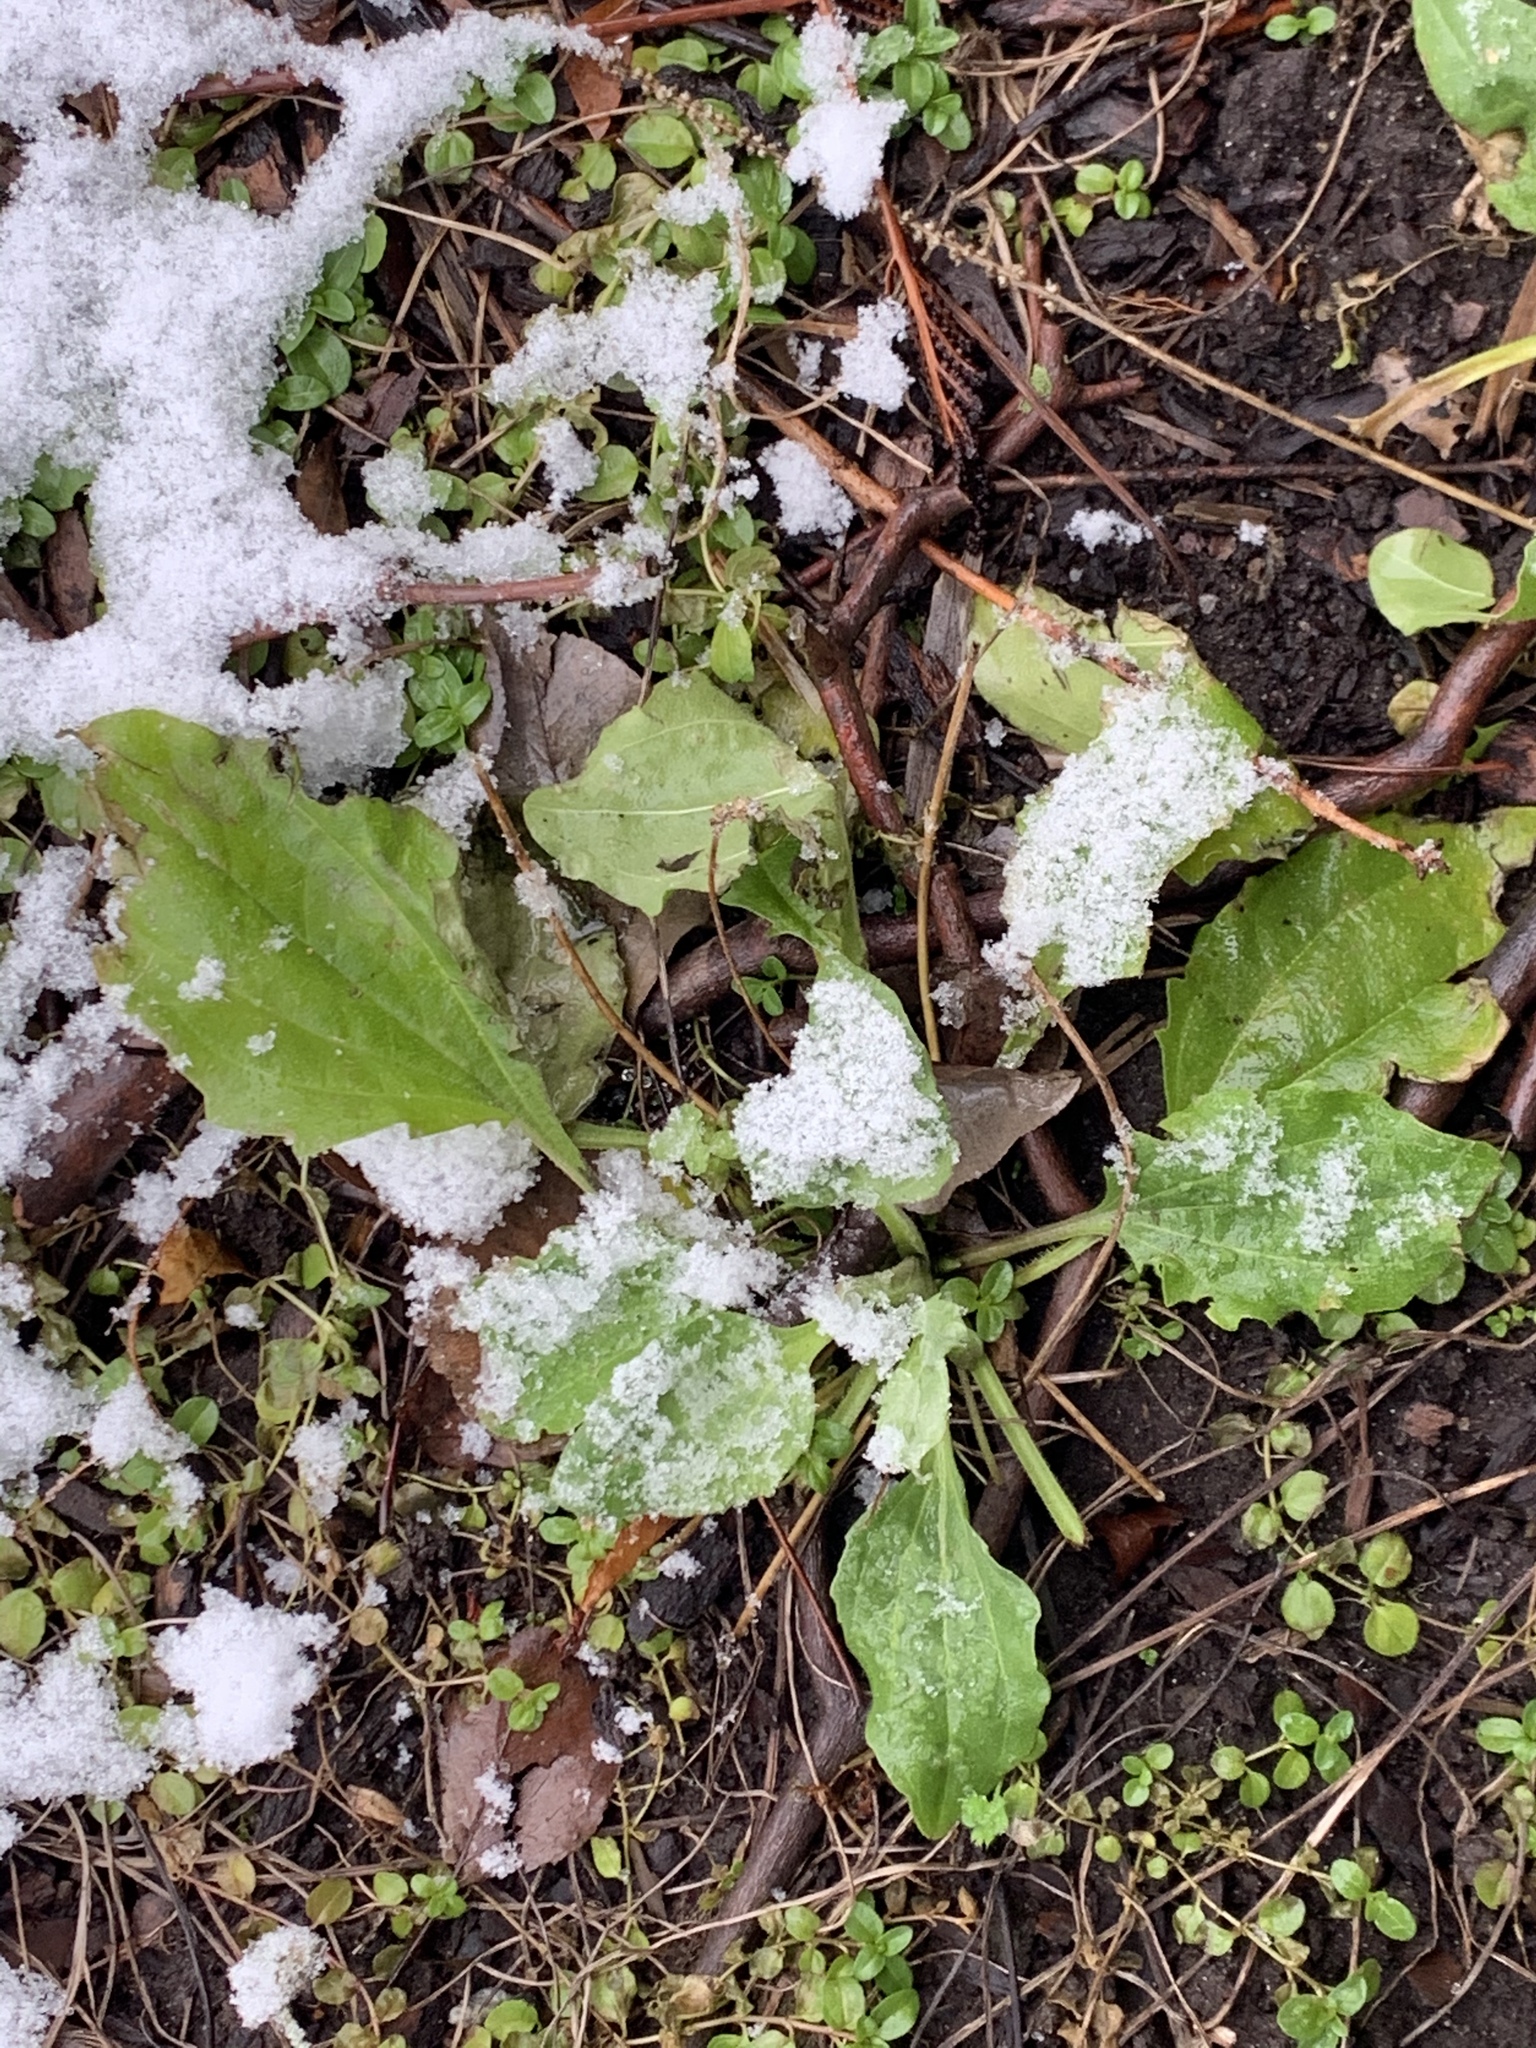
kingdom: Plantae
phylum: Tracheophyta
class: Magnoliopsida
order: Asterales
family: Asteraceae
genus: Erigeron
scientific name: Erigeron annuus
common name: Tall fleabane
